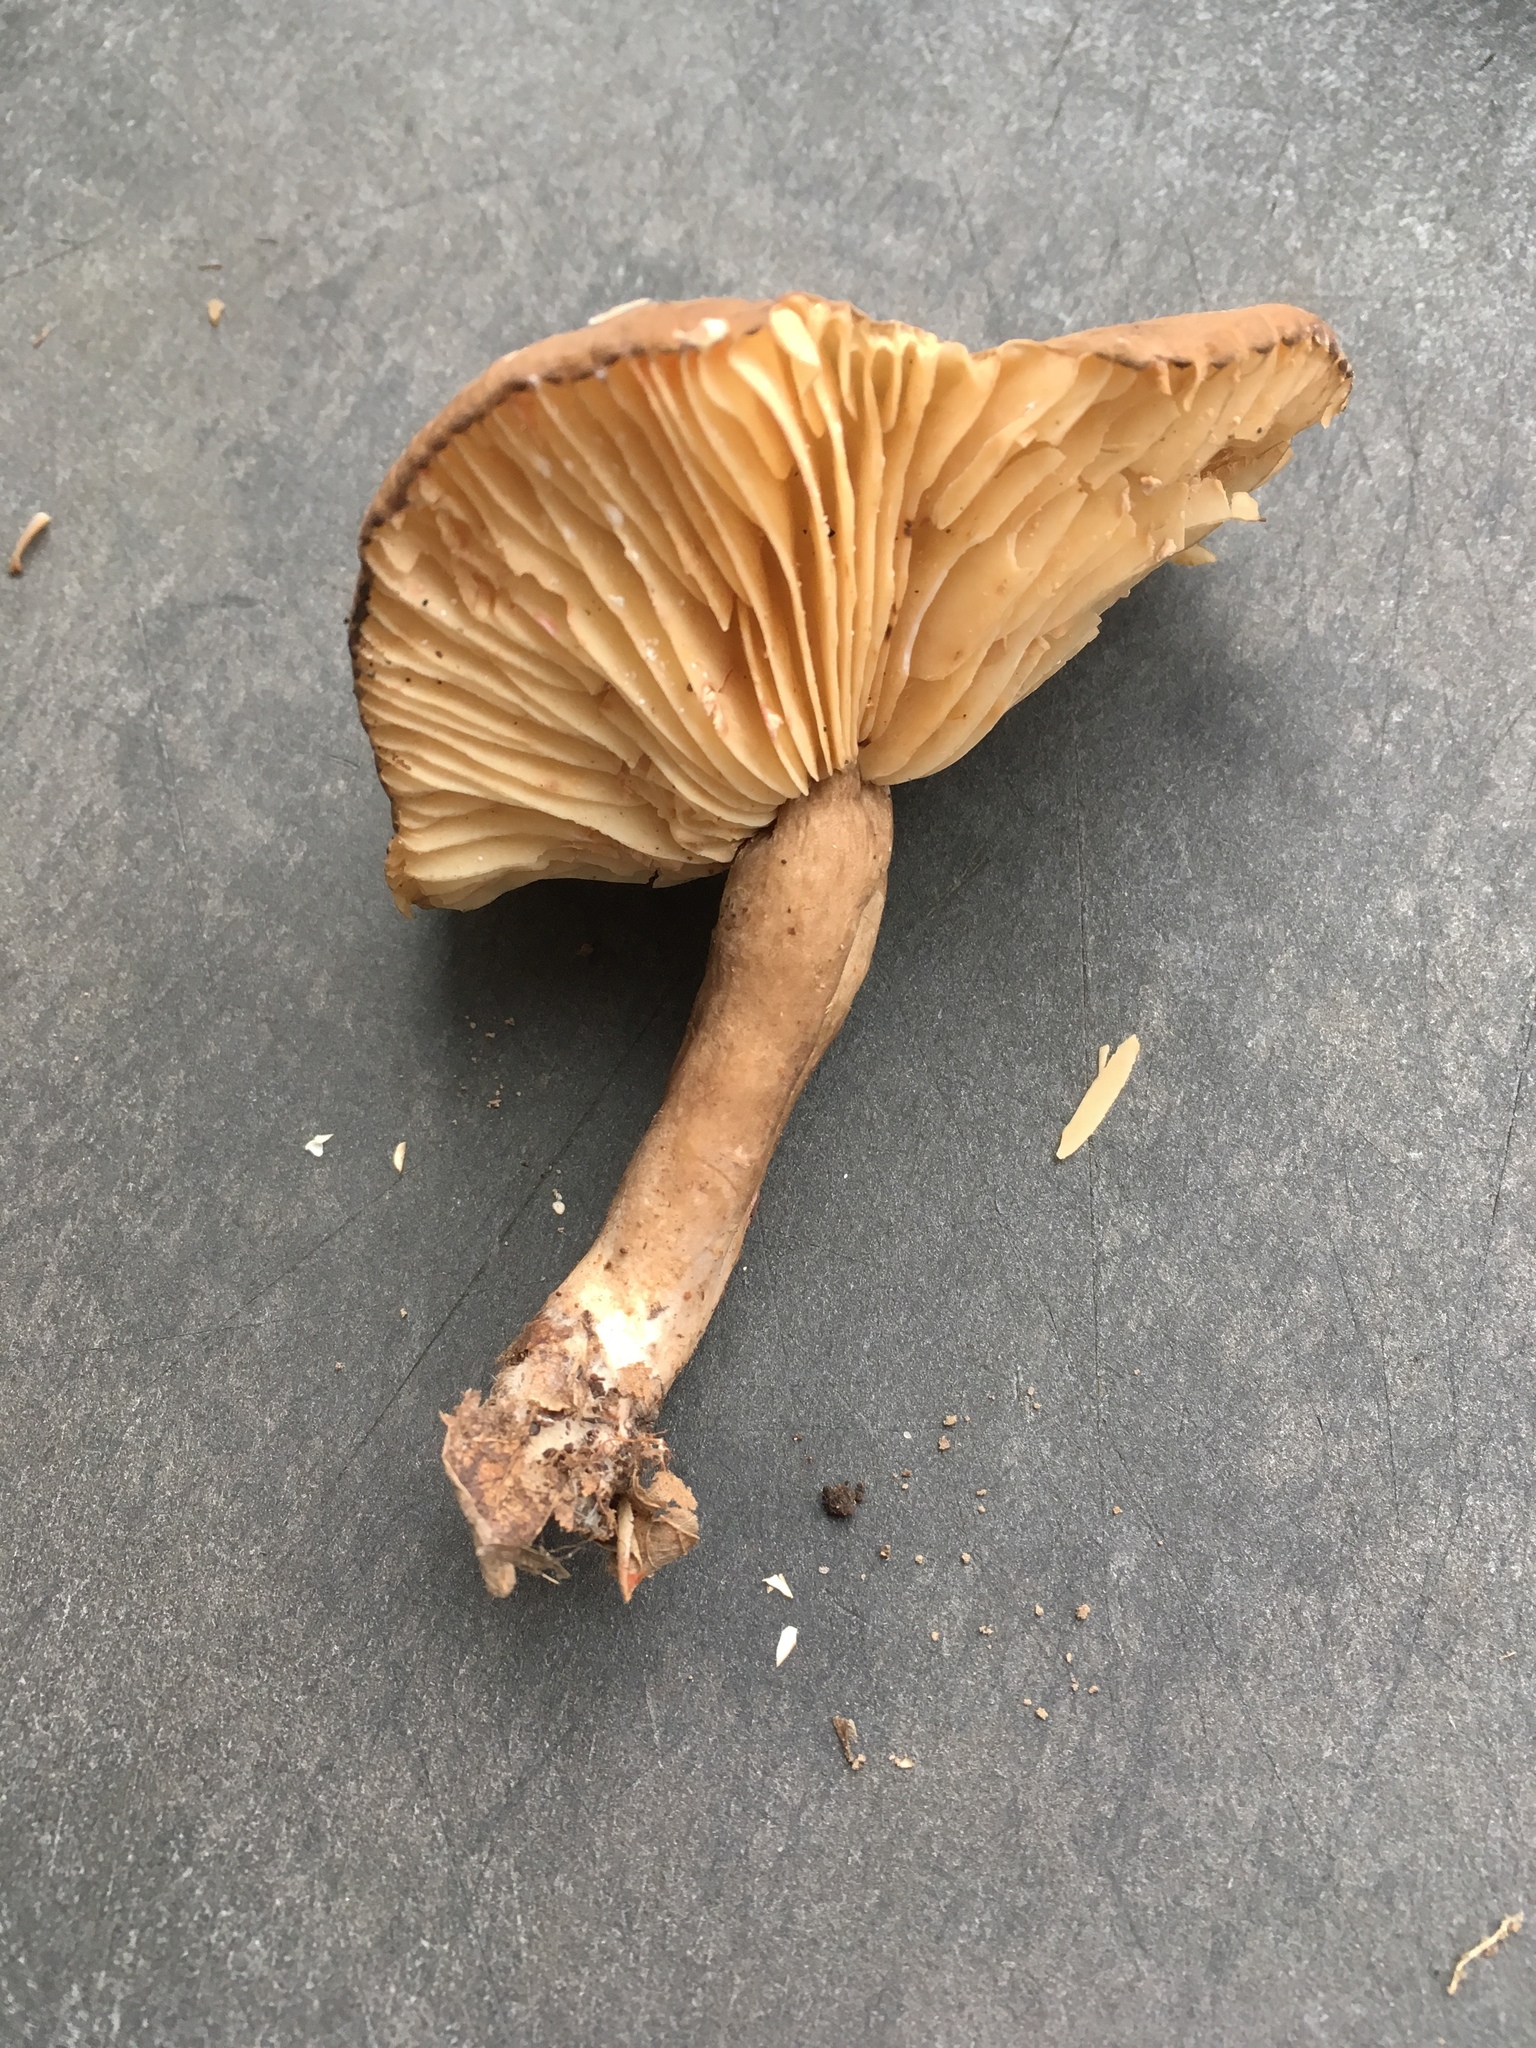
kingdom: Fungi
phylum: Basidiomycota
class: Agaricomycetes
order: Russulales
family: Russulaceae
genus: Lactarius
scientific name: Lactarius fuliginosus
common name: Sooty milkcap
